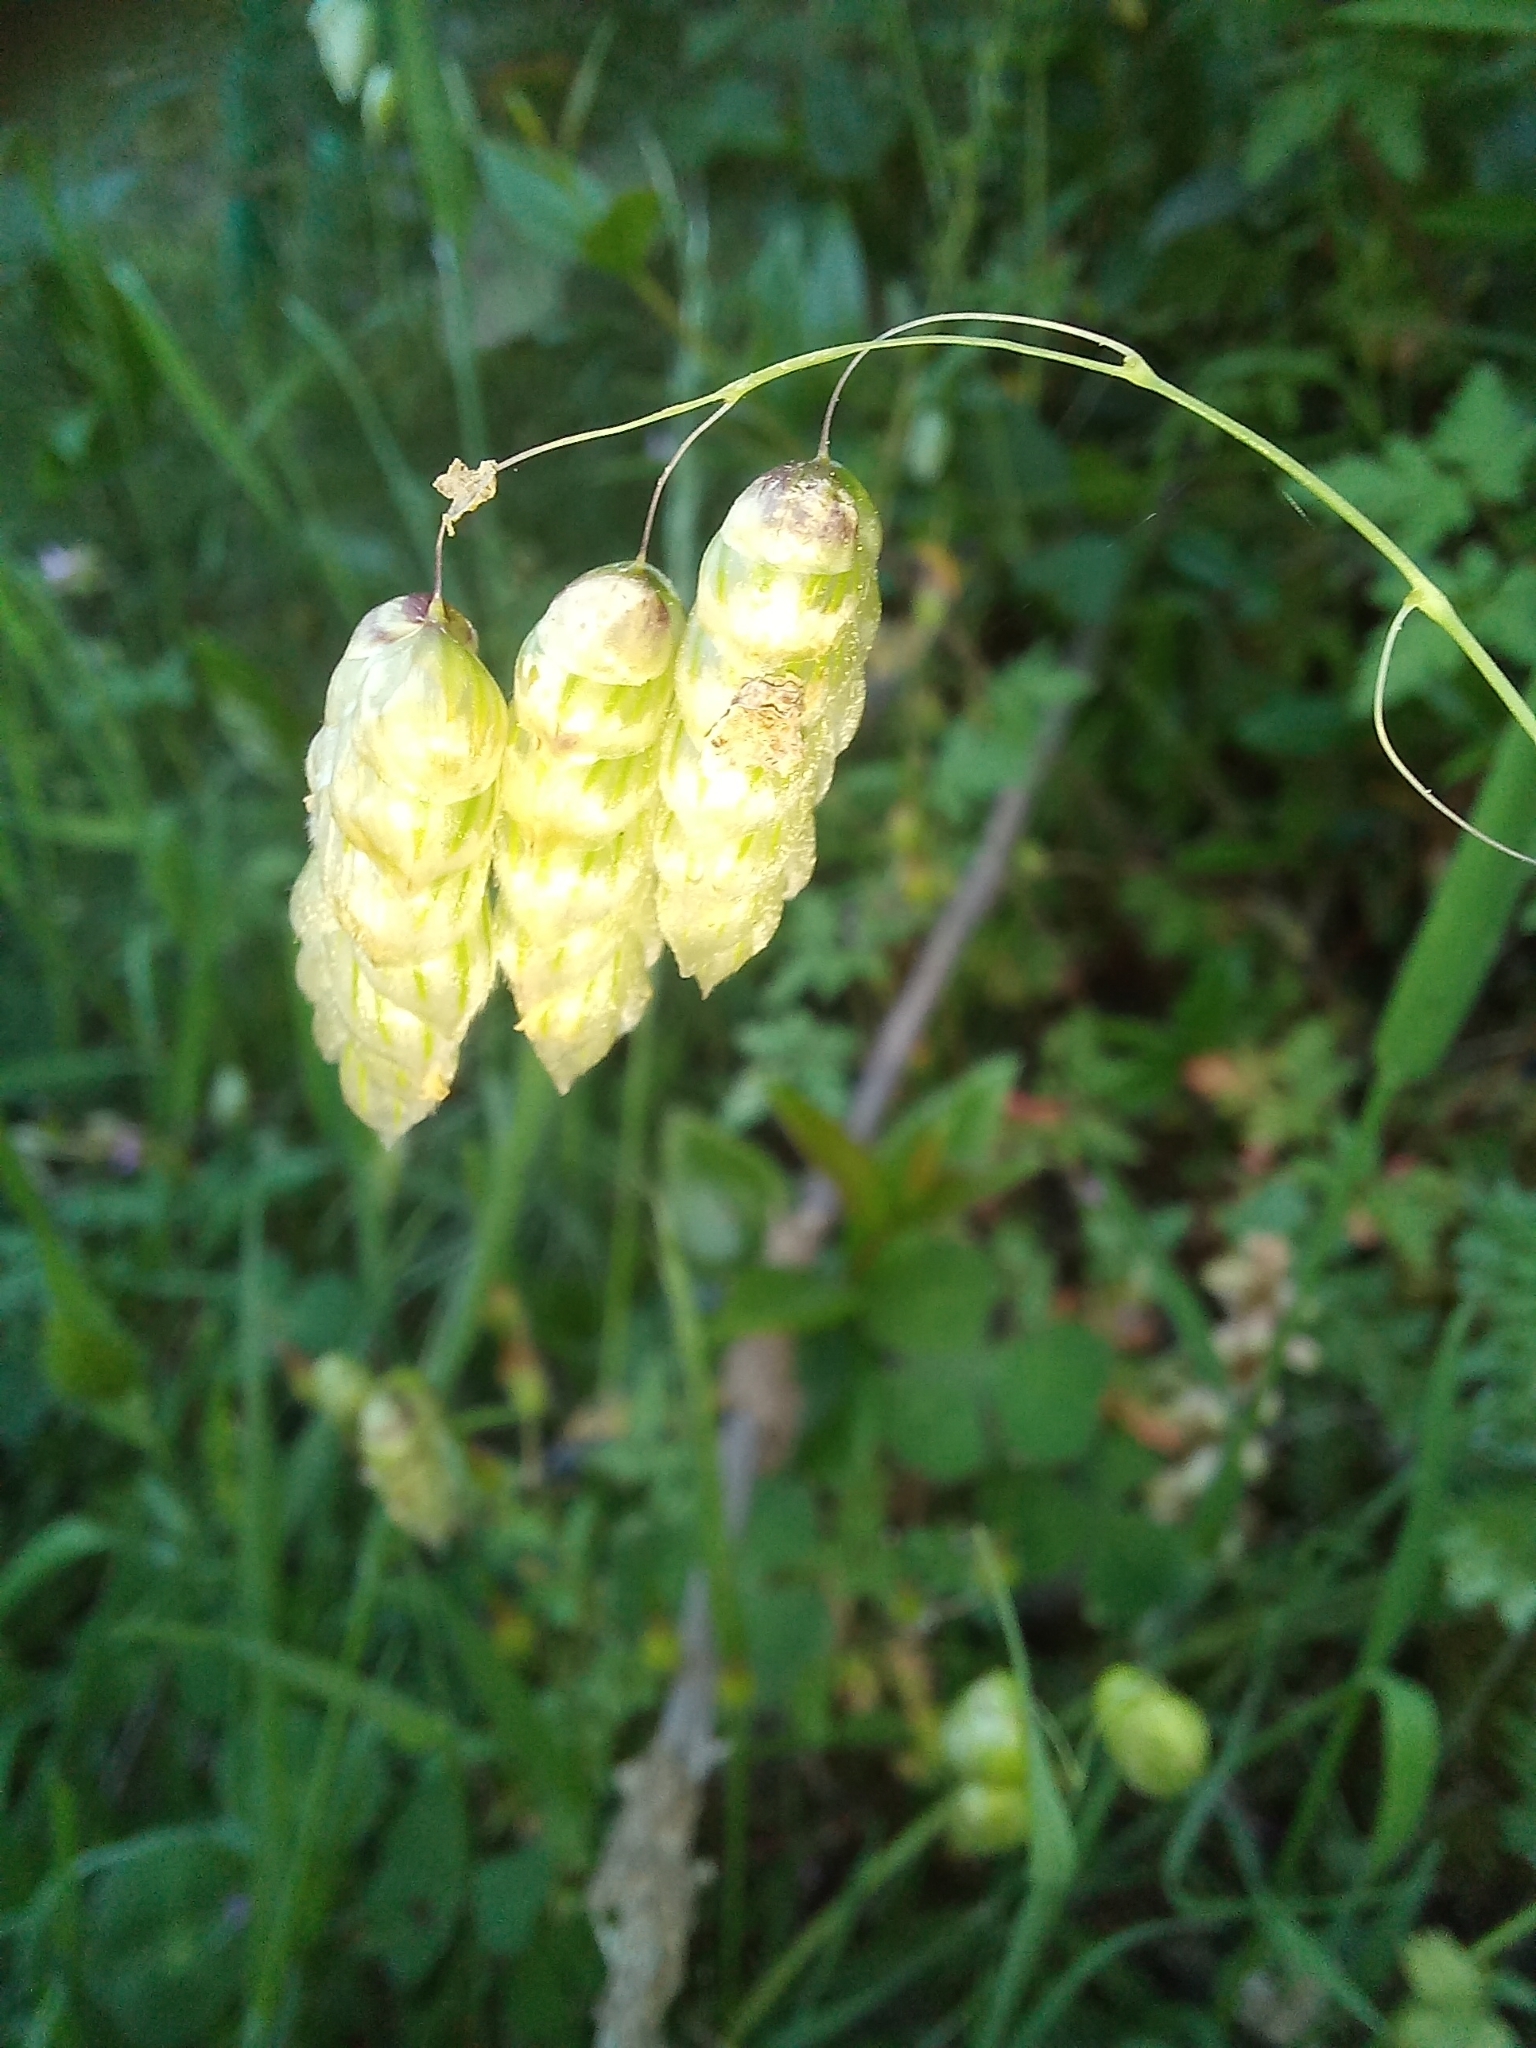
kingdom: Plantae
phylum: Tracheophyta
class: Liliopsida
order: Poales
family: Poaceae
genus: Briza
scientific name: Briza maxima
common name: Big quakinggrass
